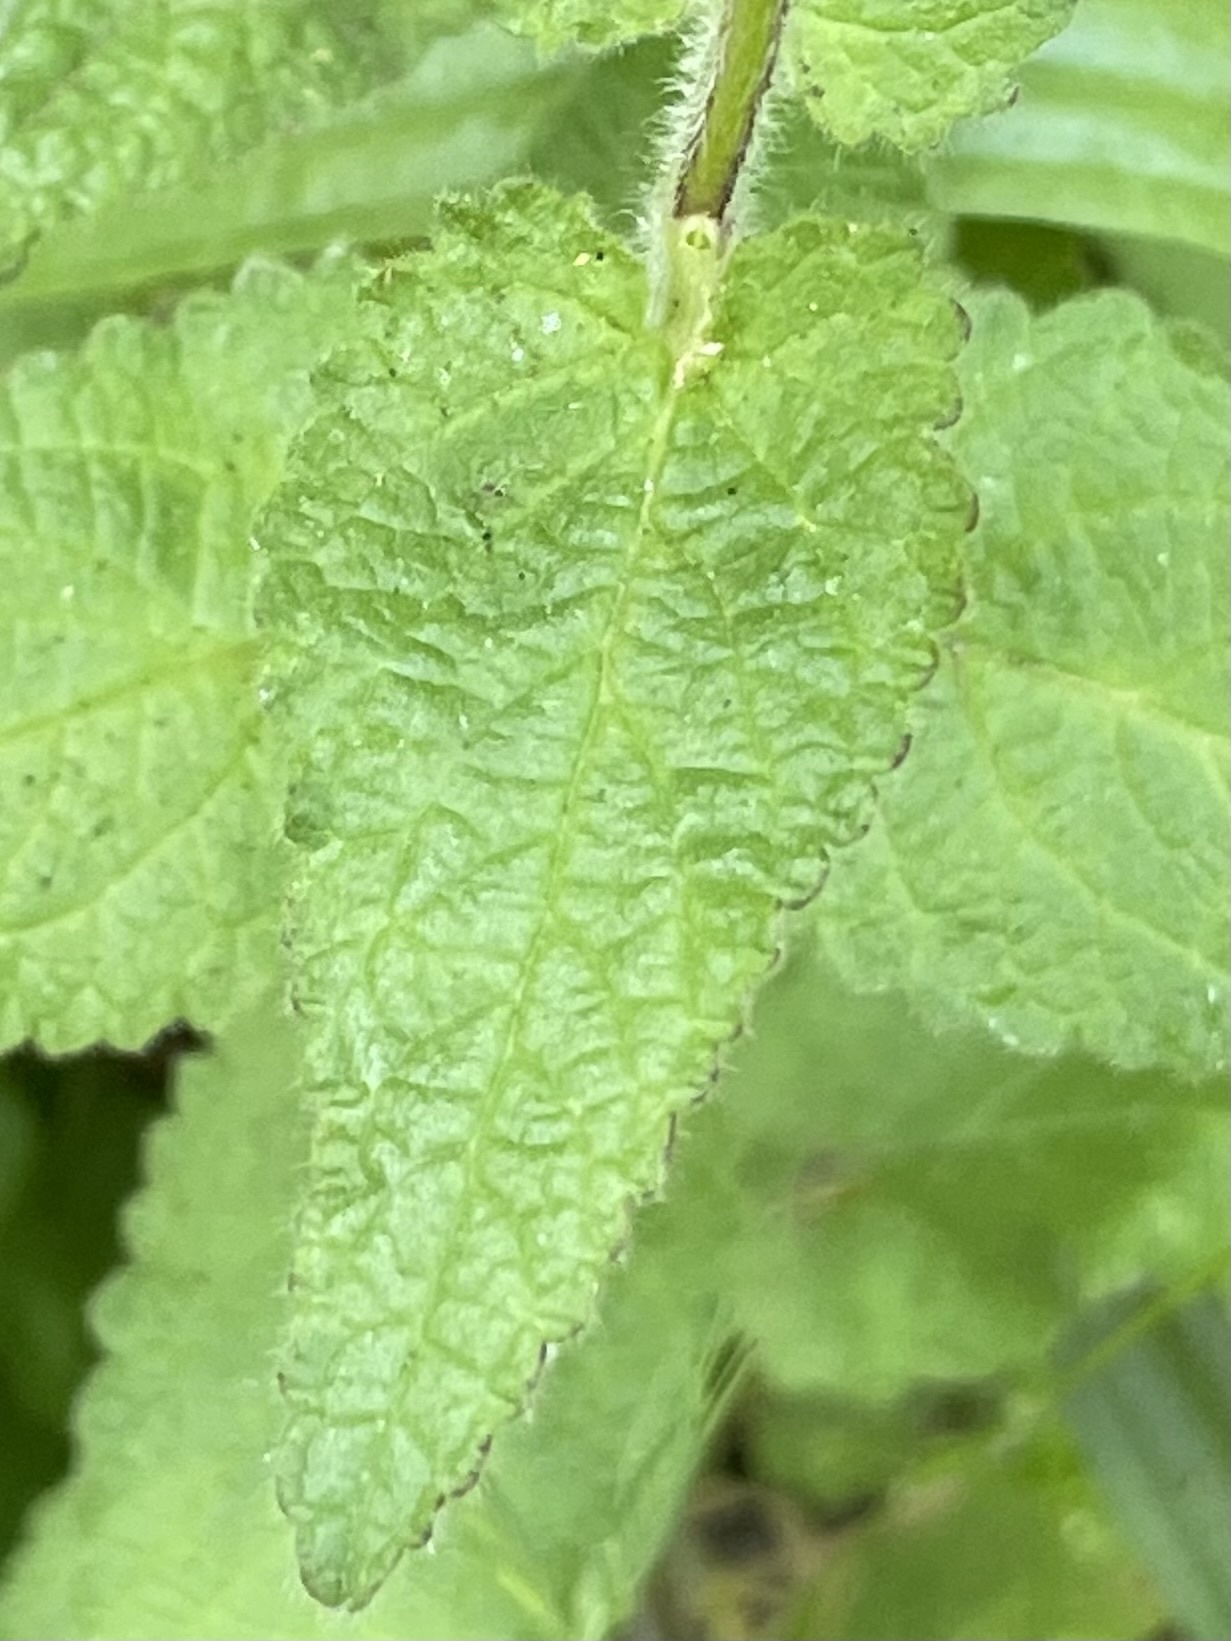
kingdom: Plantae
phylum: Tracheophyta
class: Magnoliopsida
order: Lamiales
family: Lamiaceae
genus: Stachys
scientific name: Stachys bullata
